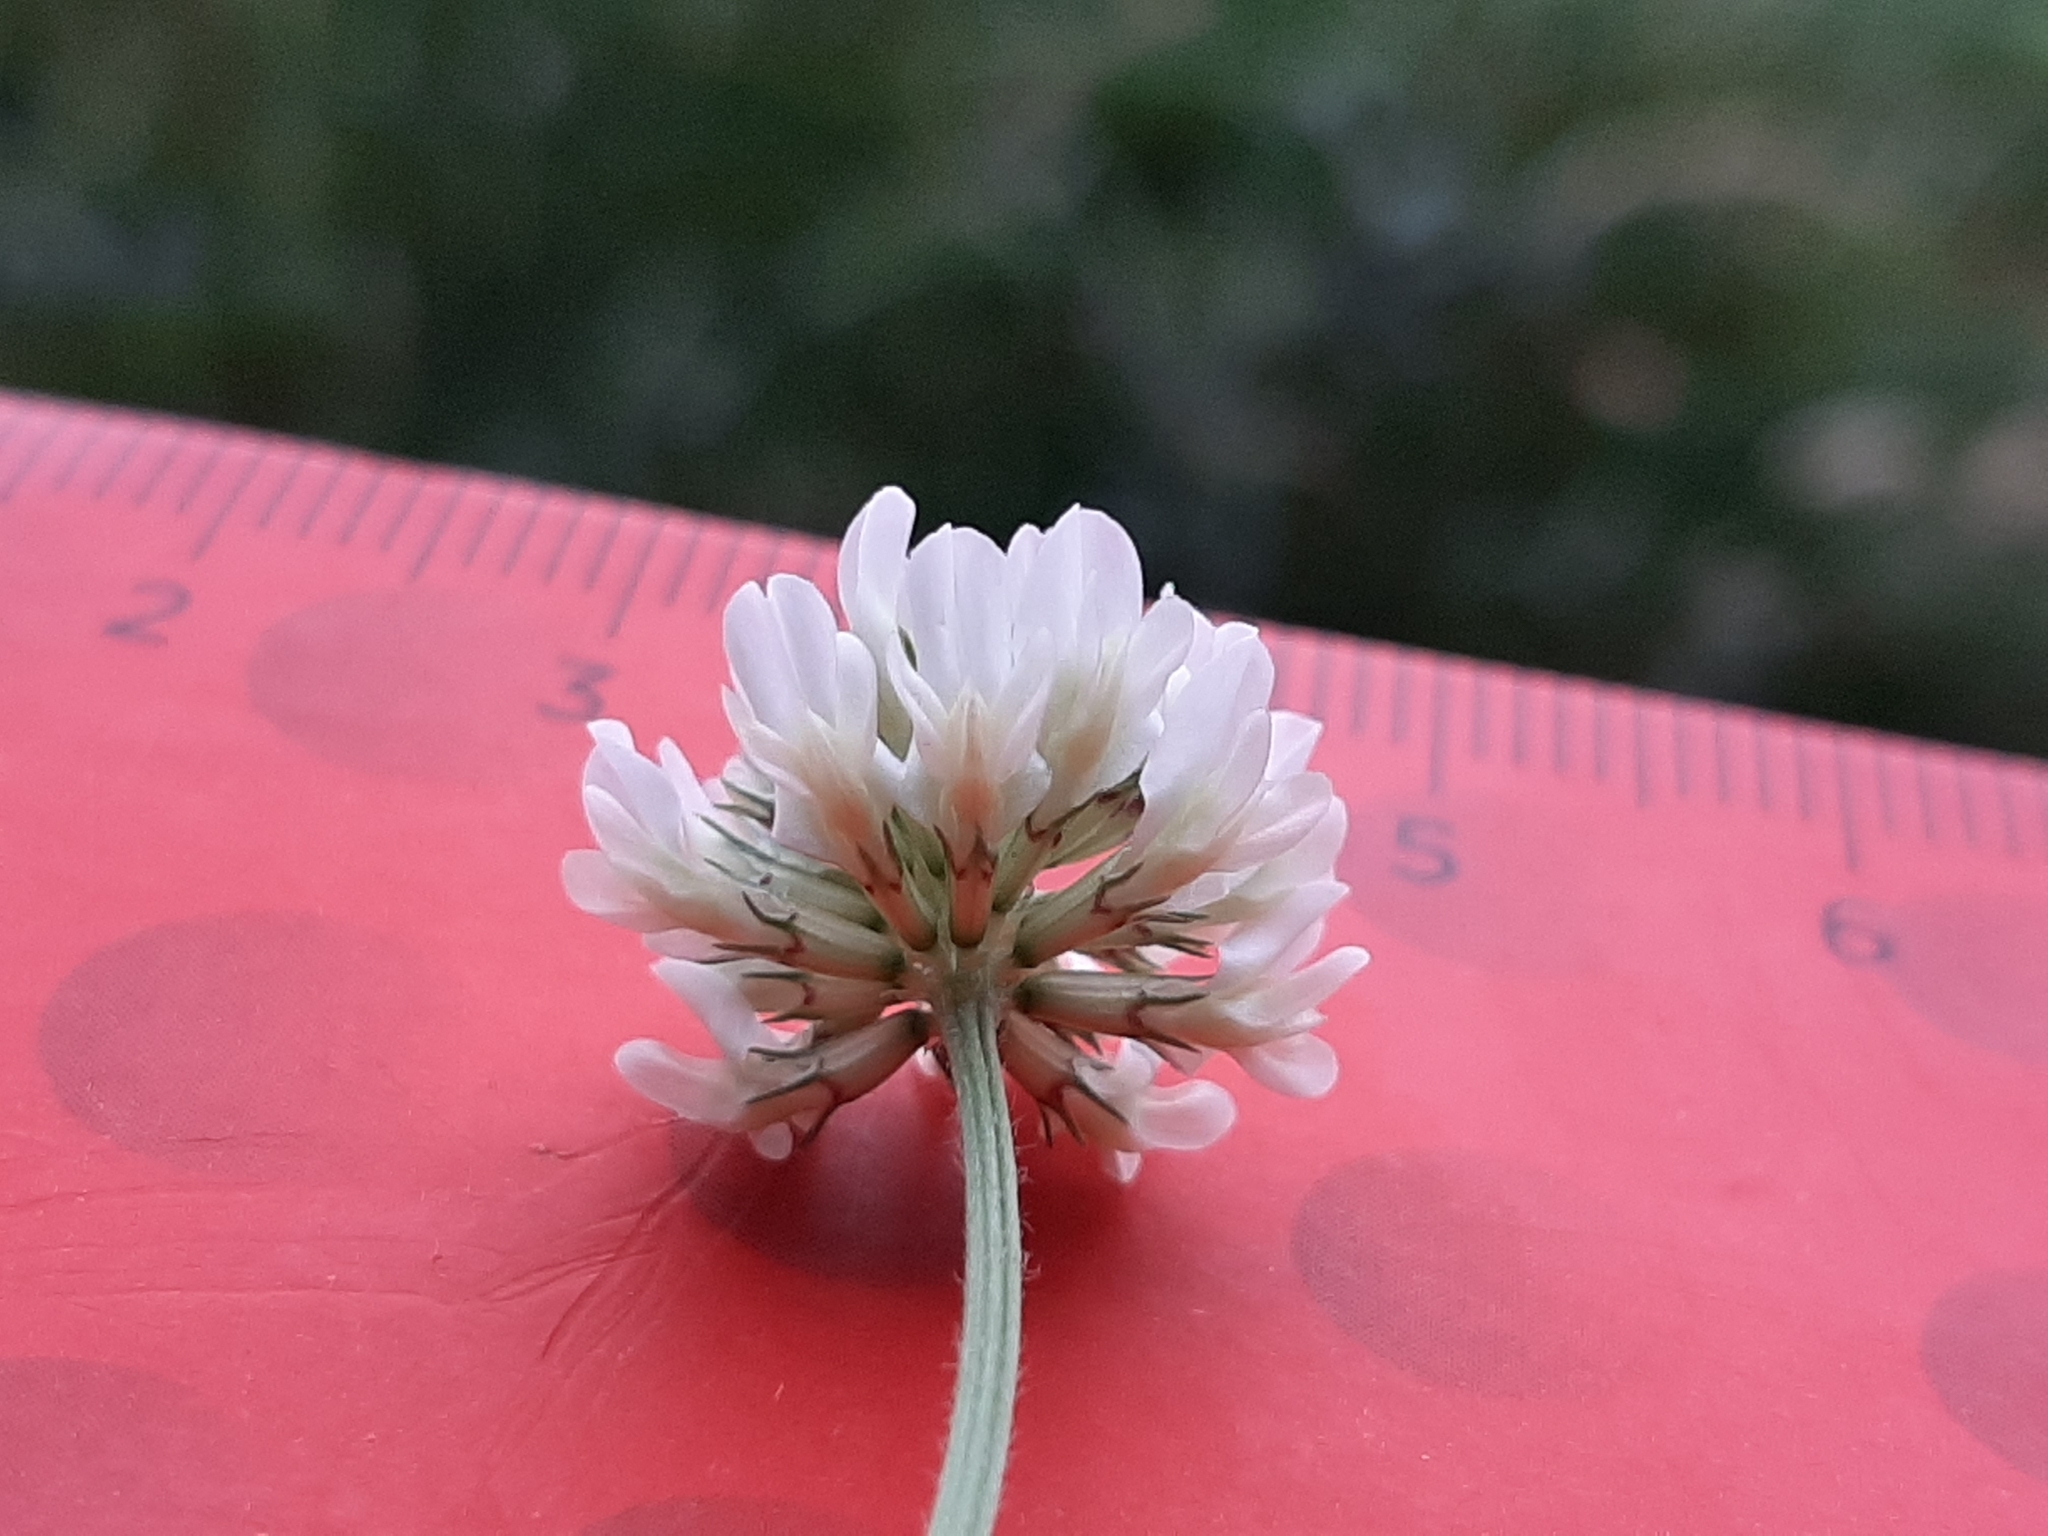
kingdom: Plantae
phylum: Tracheophyta
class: Magnoliopsida
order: Fabales
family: Fabaceae
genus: Trifolium
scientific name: Trifolium repens
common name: White clover
